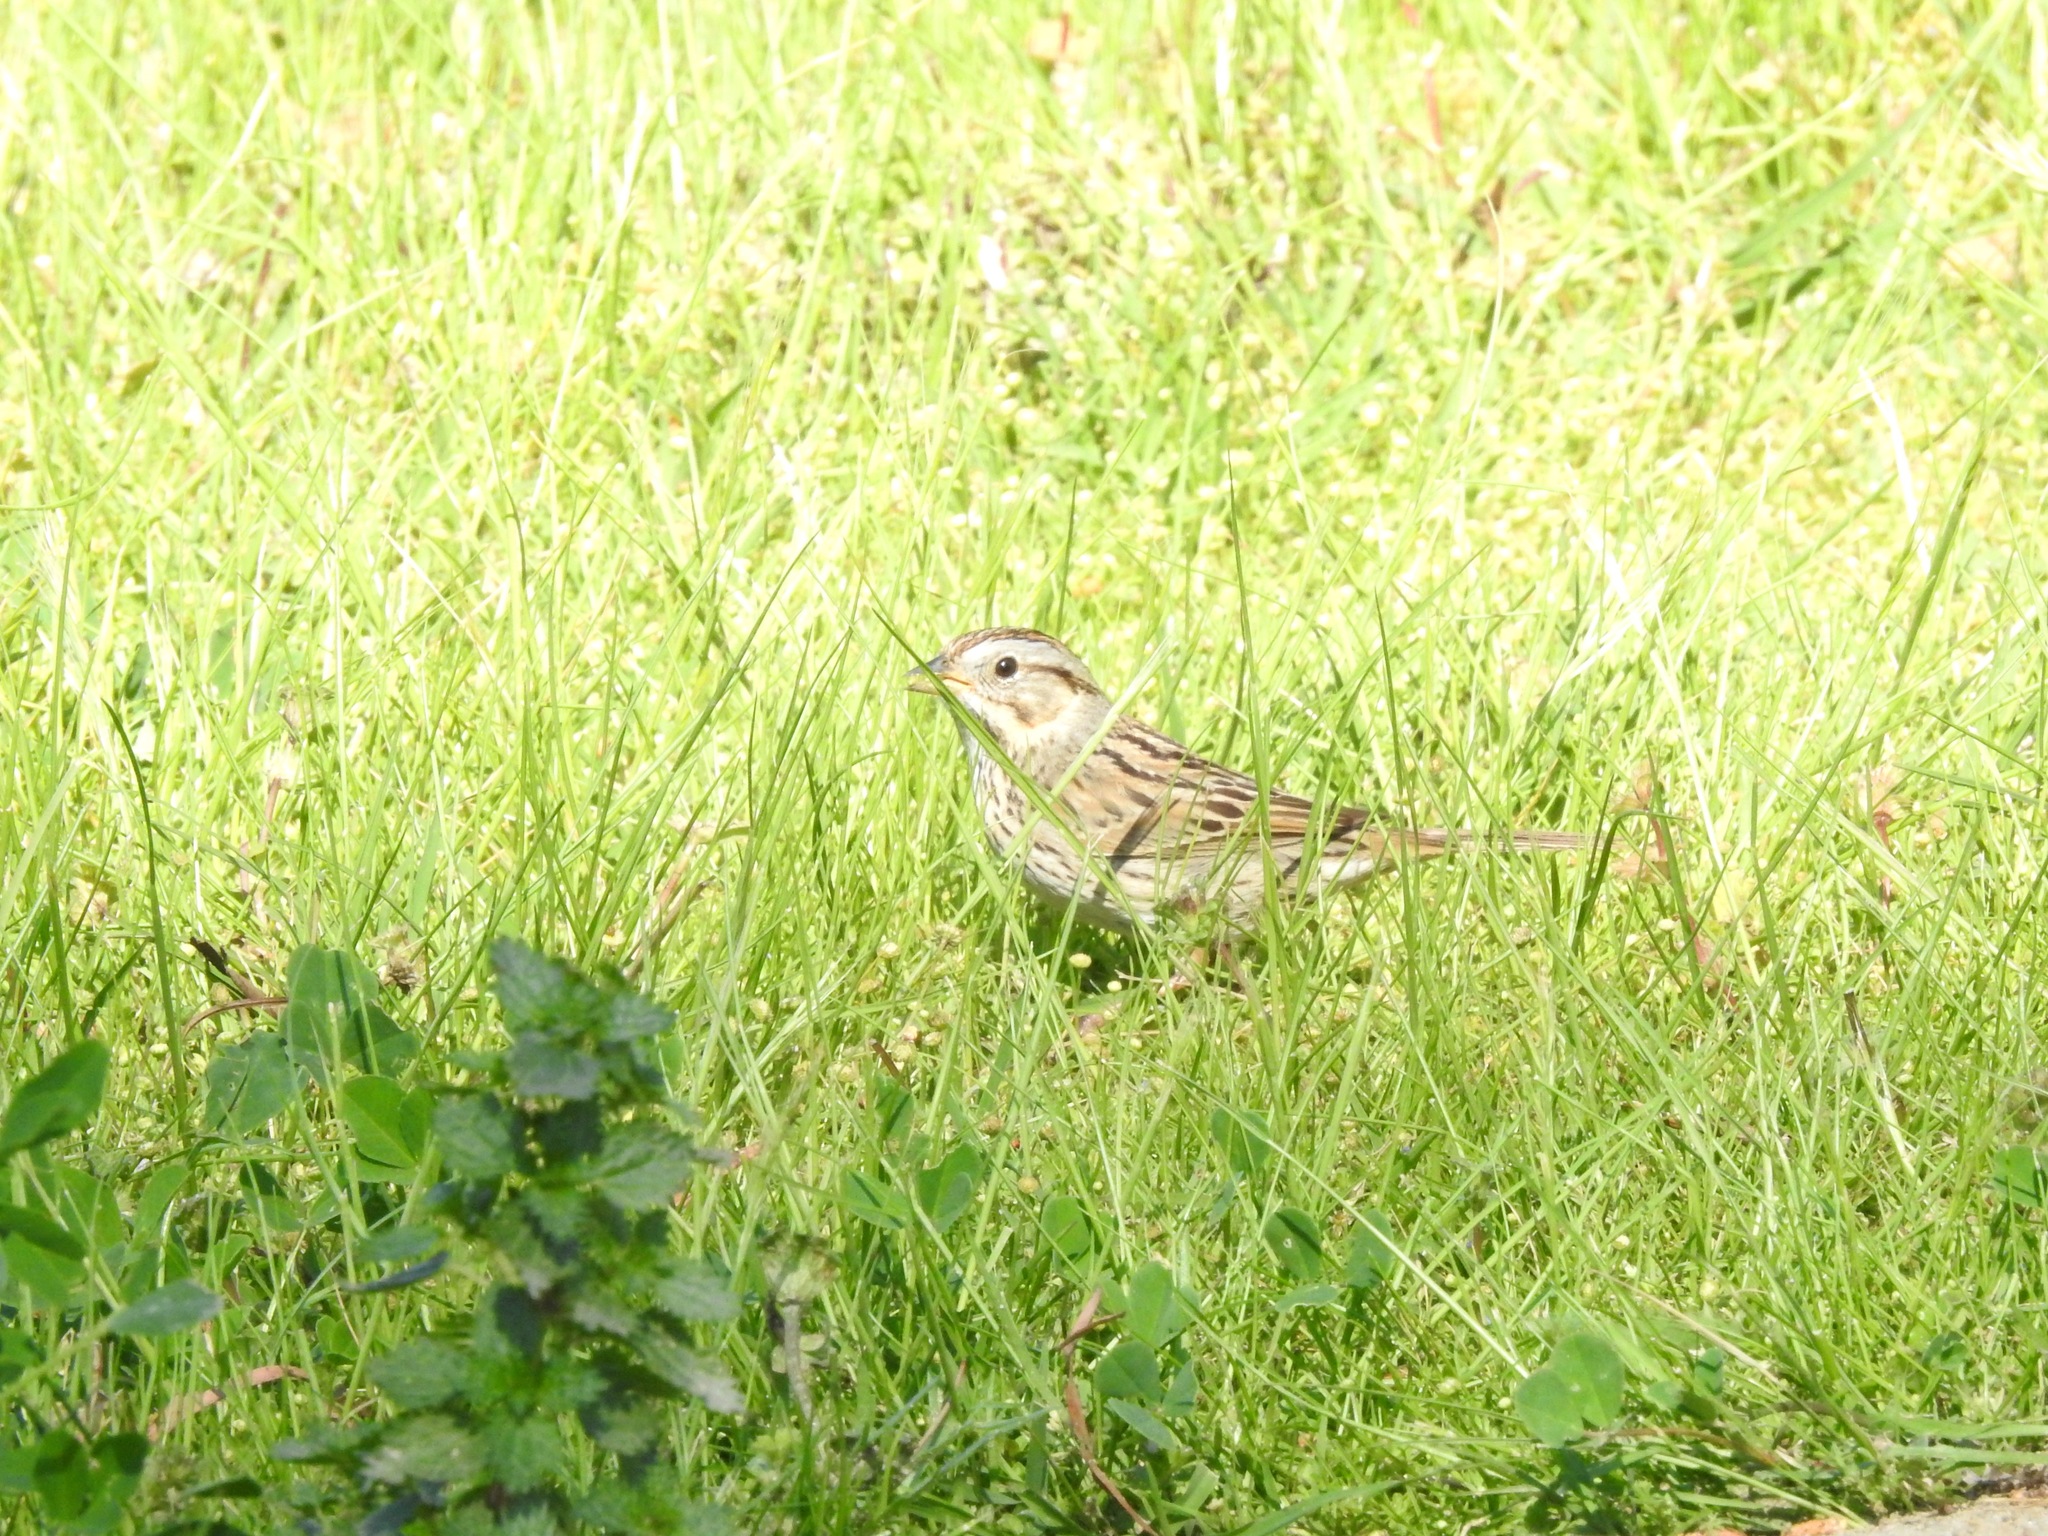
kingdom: Animalia
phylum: Chordata
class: Aves
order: Passeriformes
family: Passerellidae
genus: Melospiza
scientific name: Melospiza lincolnii
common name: Lincoln's sparrow
